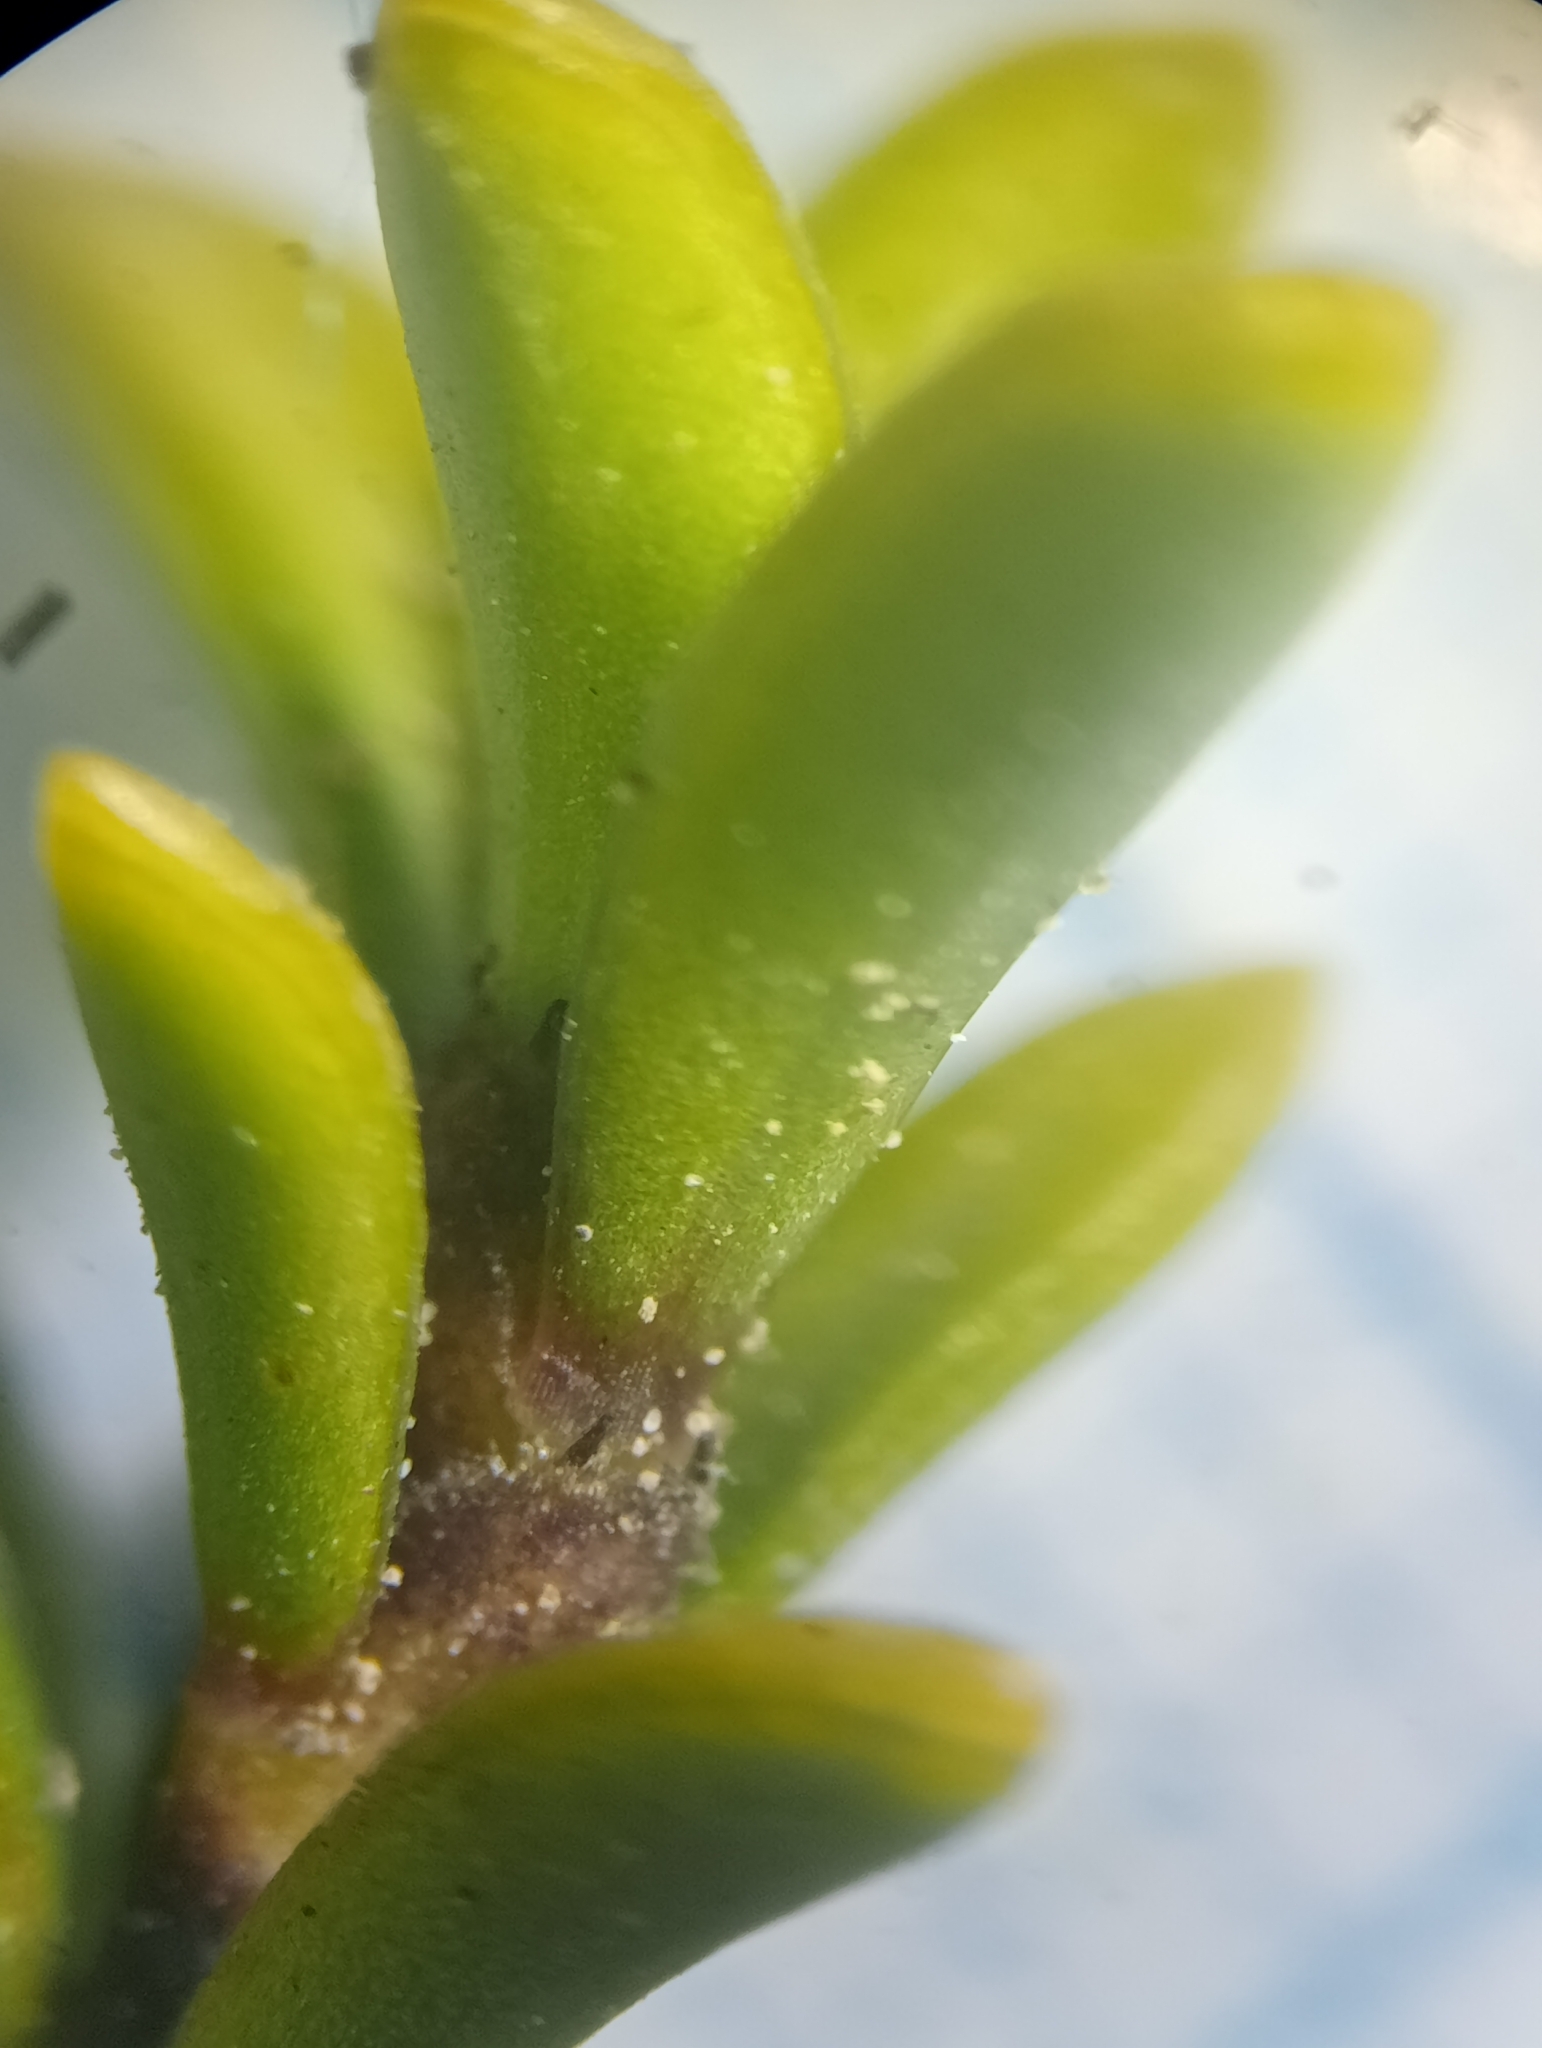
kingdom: Plantae
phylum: Tracheophyta
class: Magnoliopsida
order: Gentianales
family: Rubiaceae
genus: Coprosma
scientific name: Coprosma fowerakeri
